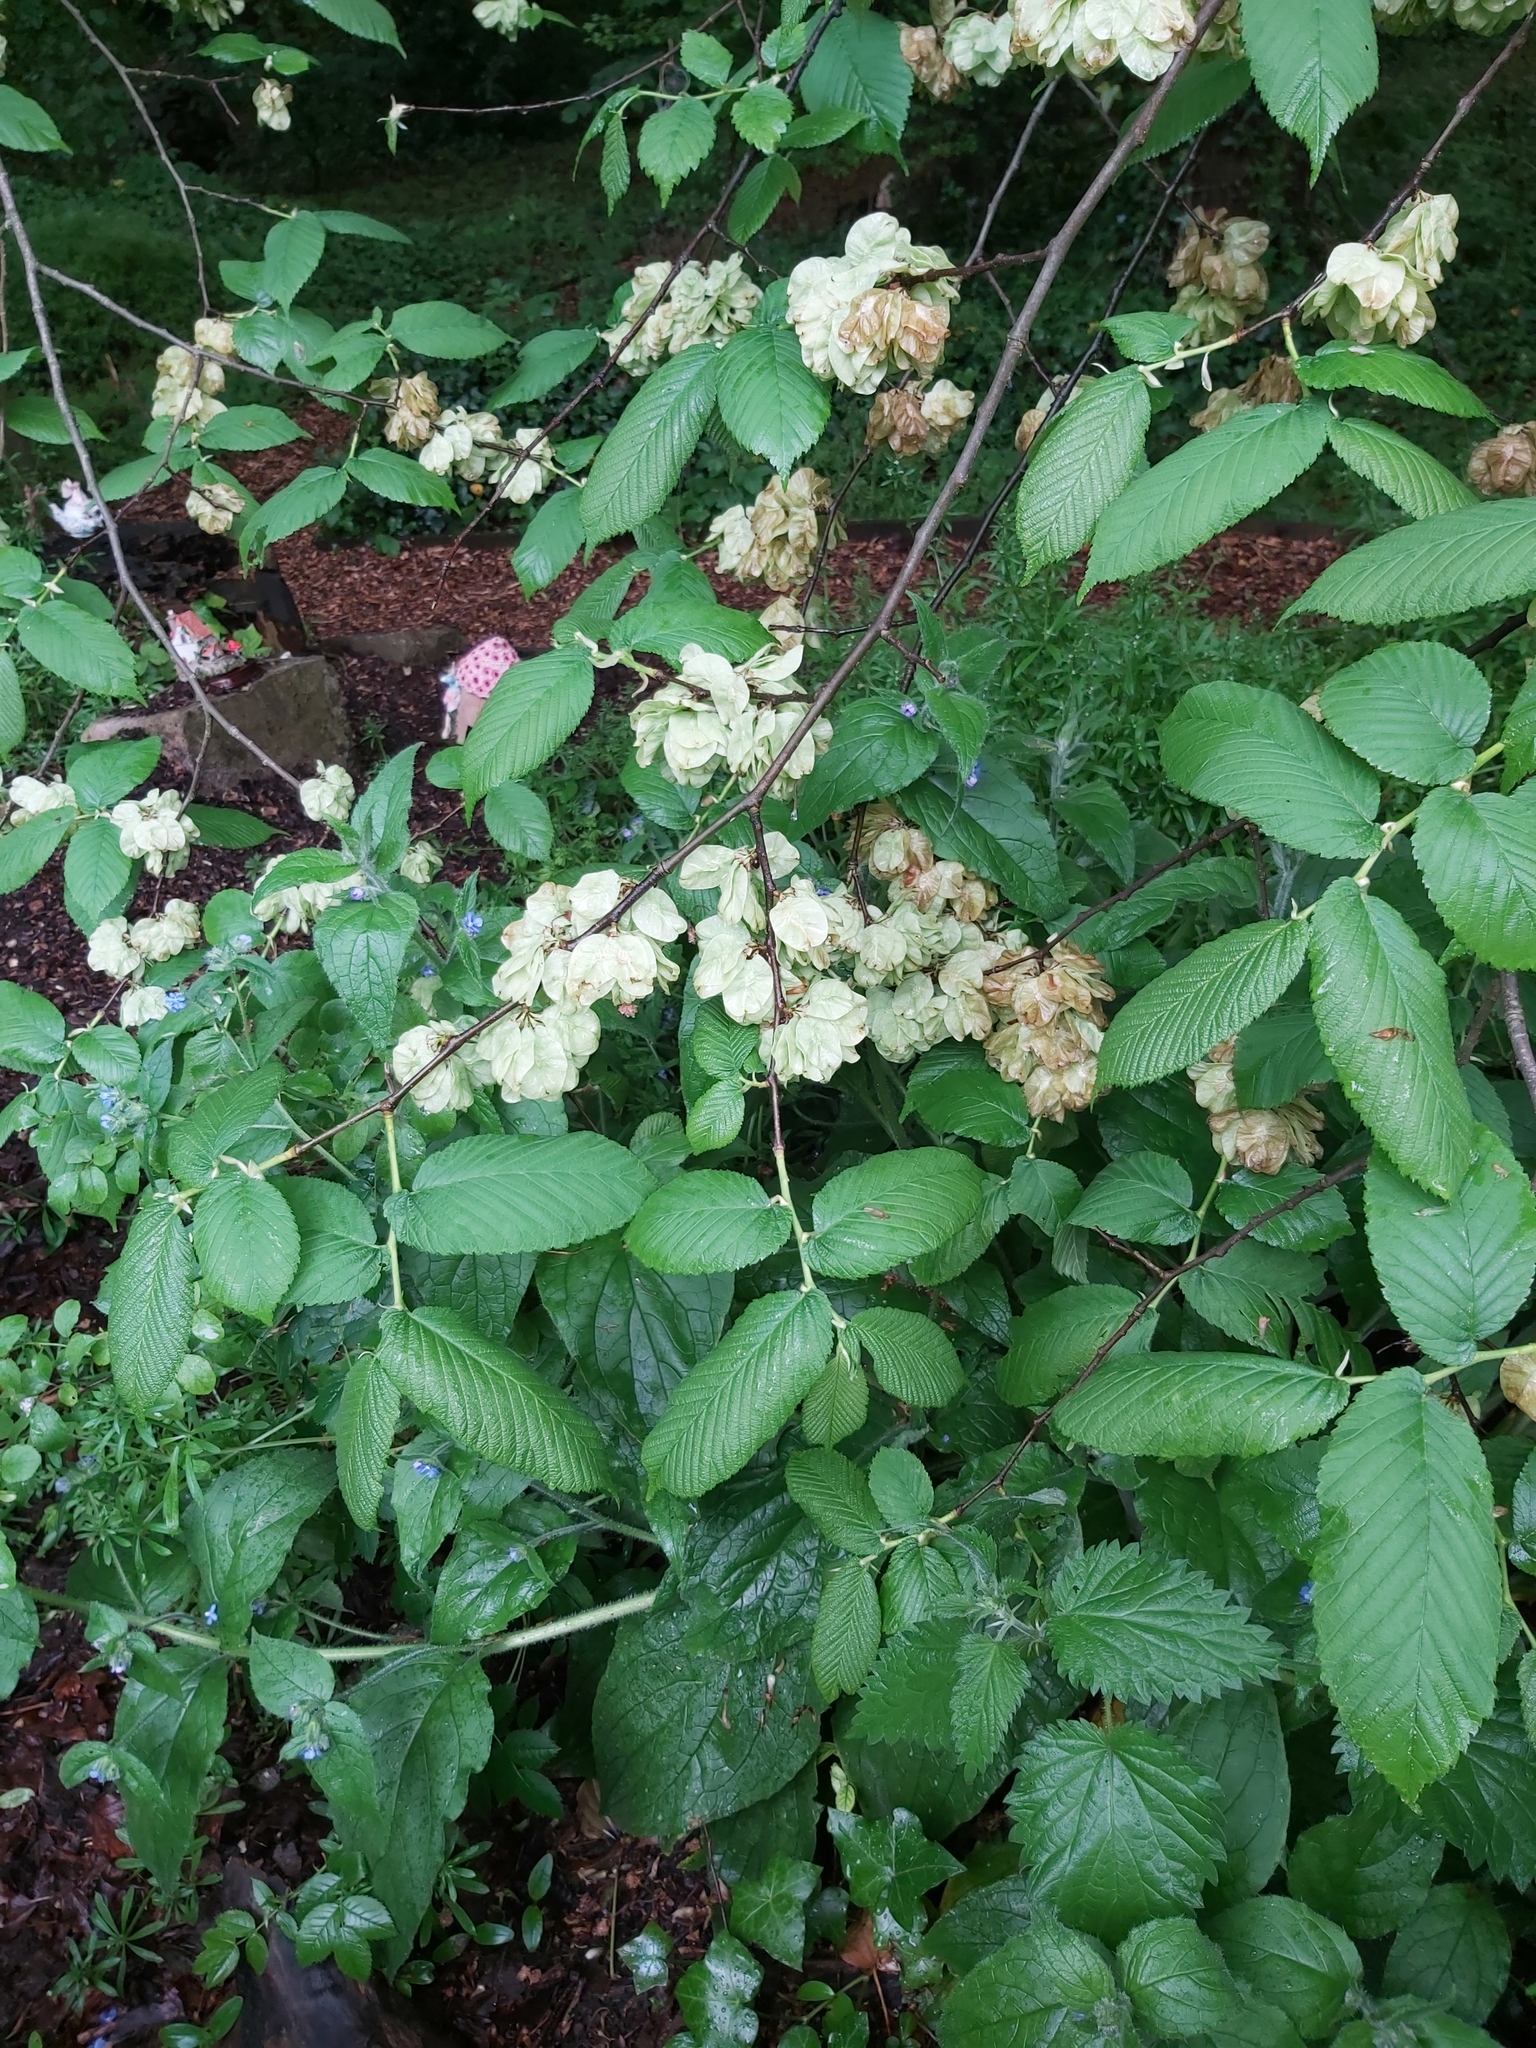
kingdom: Plantae
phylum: Tracheophyta
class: Magnoliopsida
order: Rosales
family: Ulmaceae
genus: Ulmus
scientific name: Ulmus glabra
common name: Wych elm
